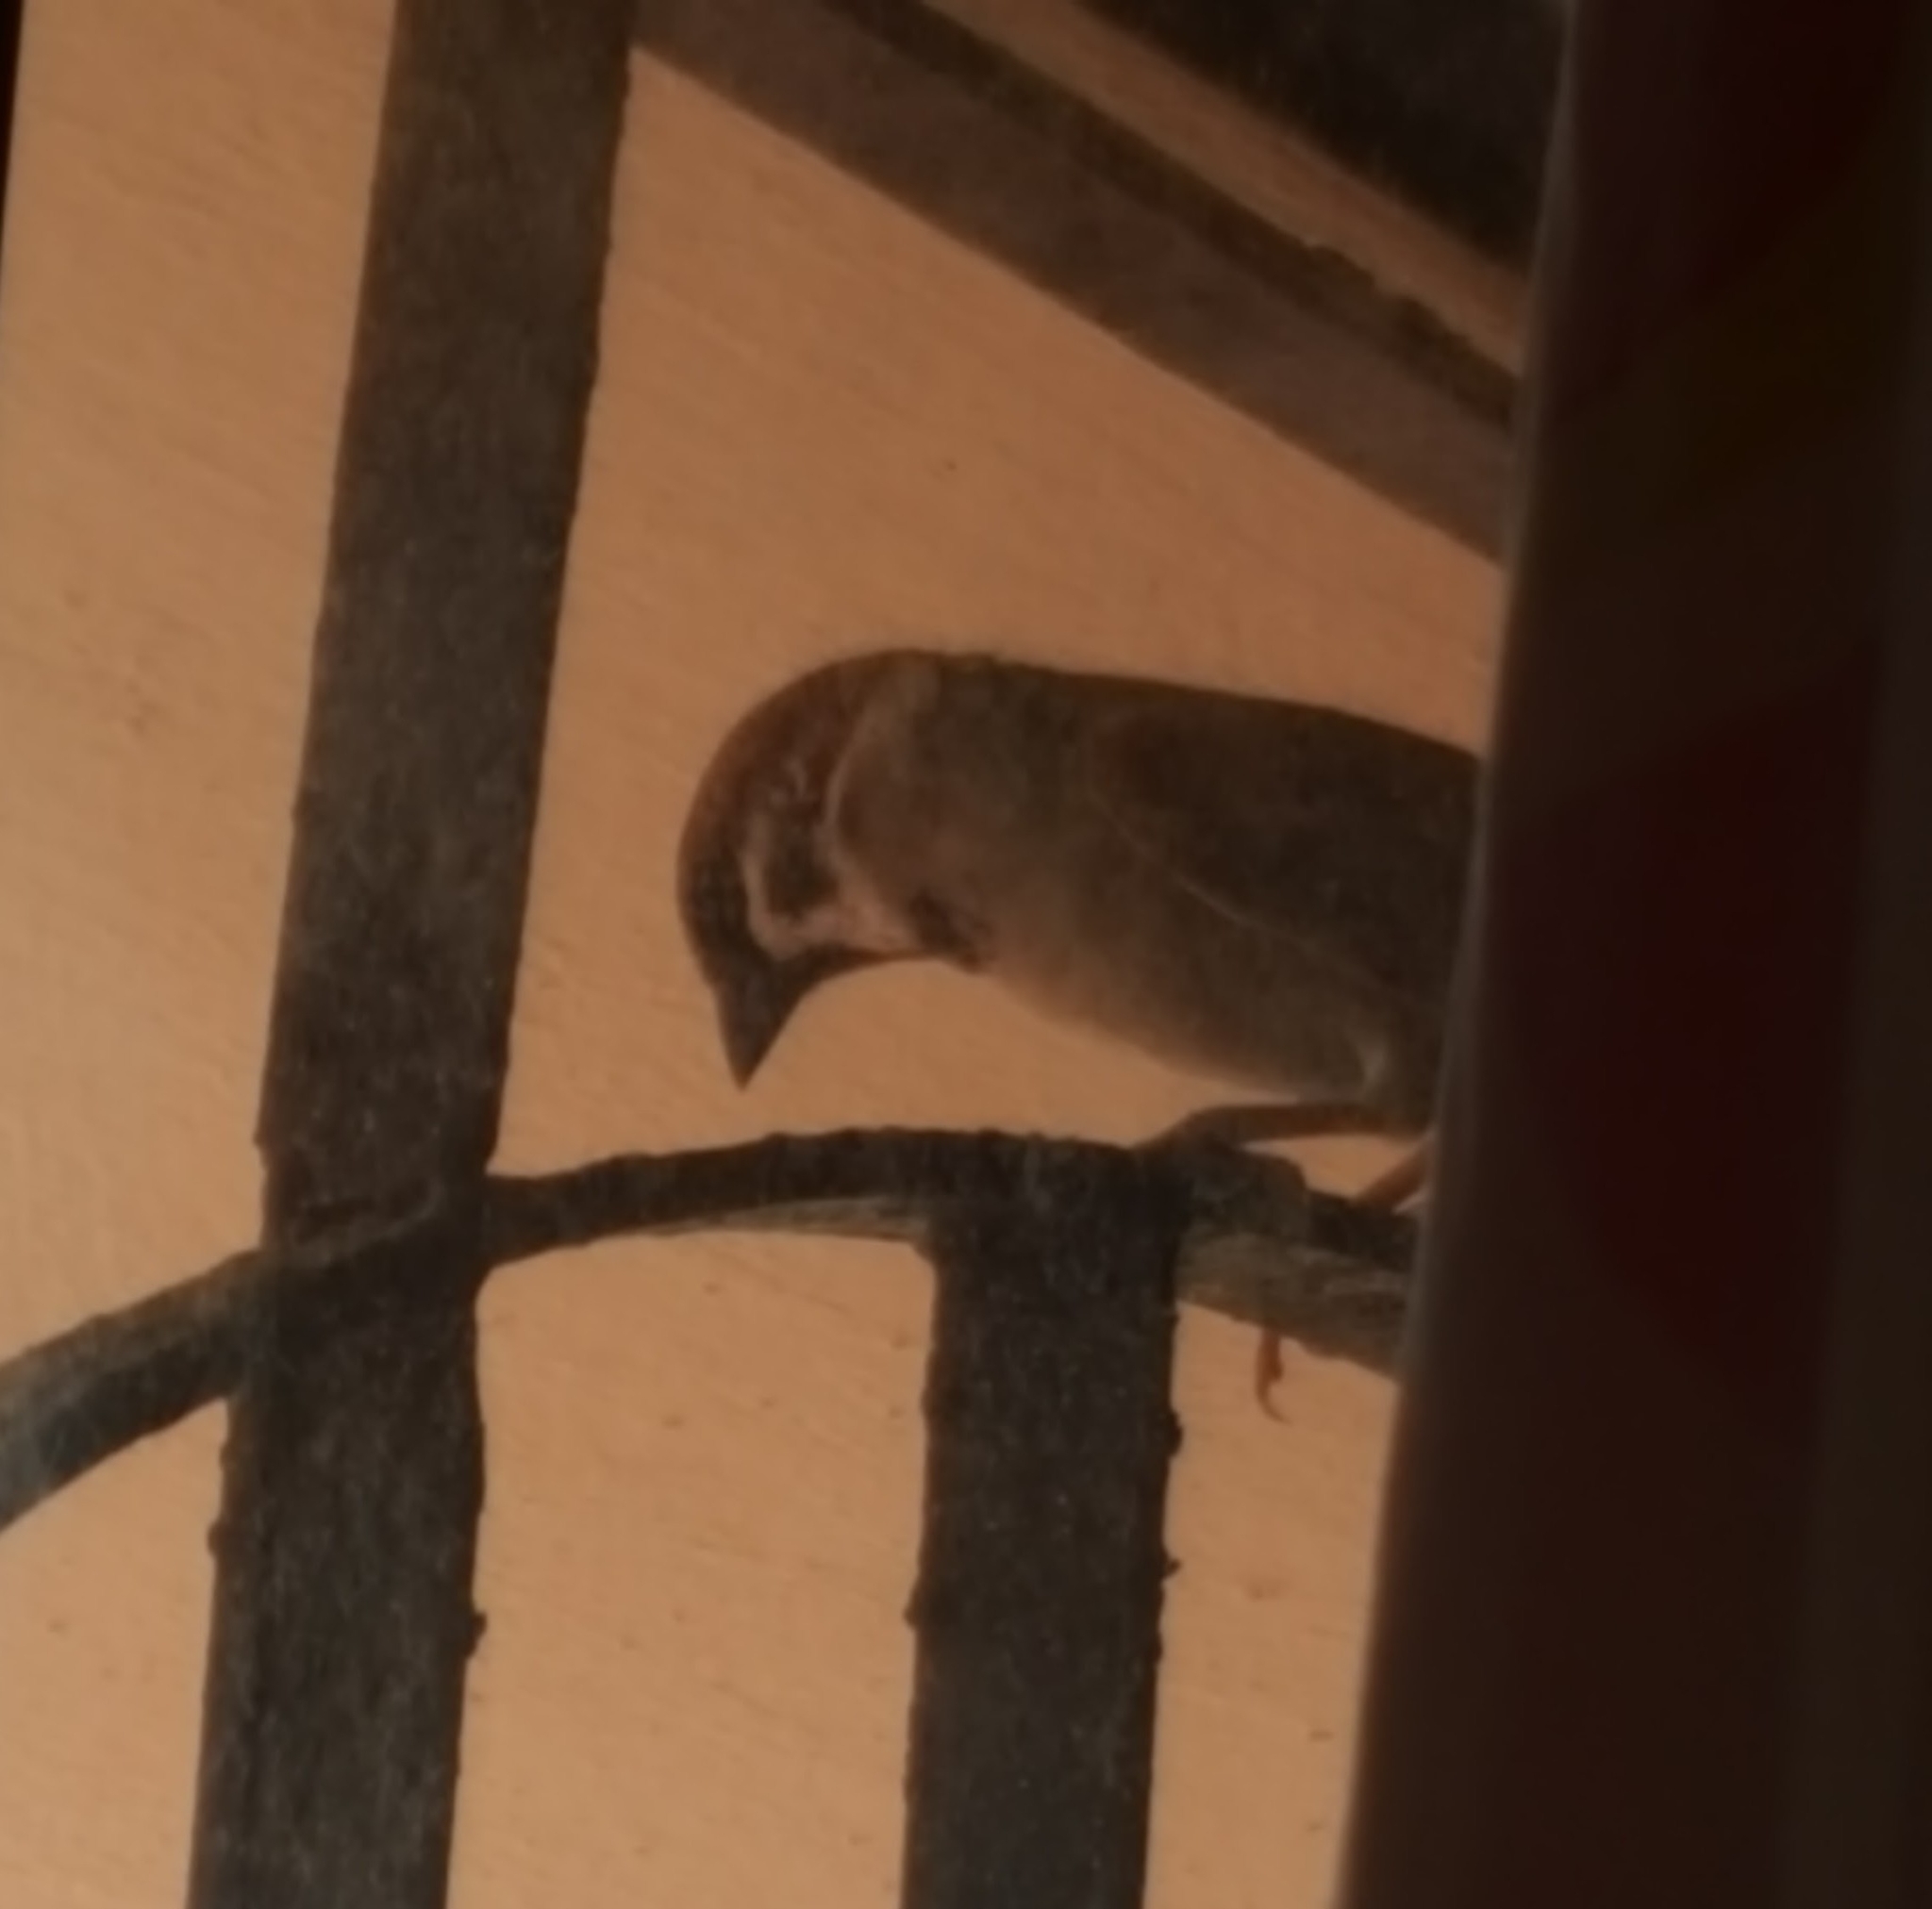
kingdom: Animalia
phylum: Chordata
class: Aves
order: Passeriformes
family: Passeridae
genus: Passer
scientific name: Passer montanus
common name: Eurasian tree sparrow
